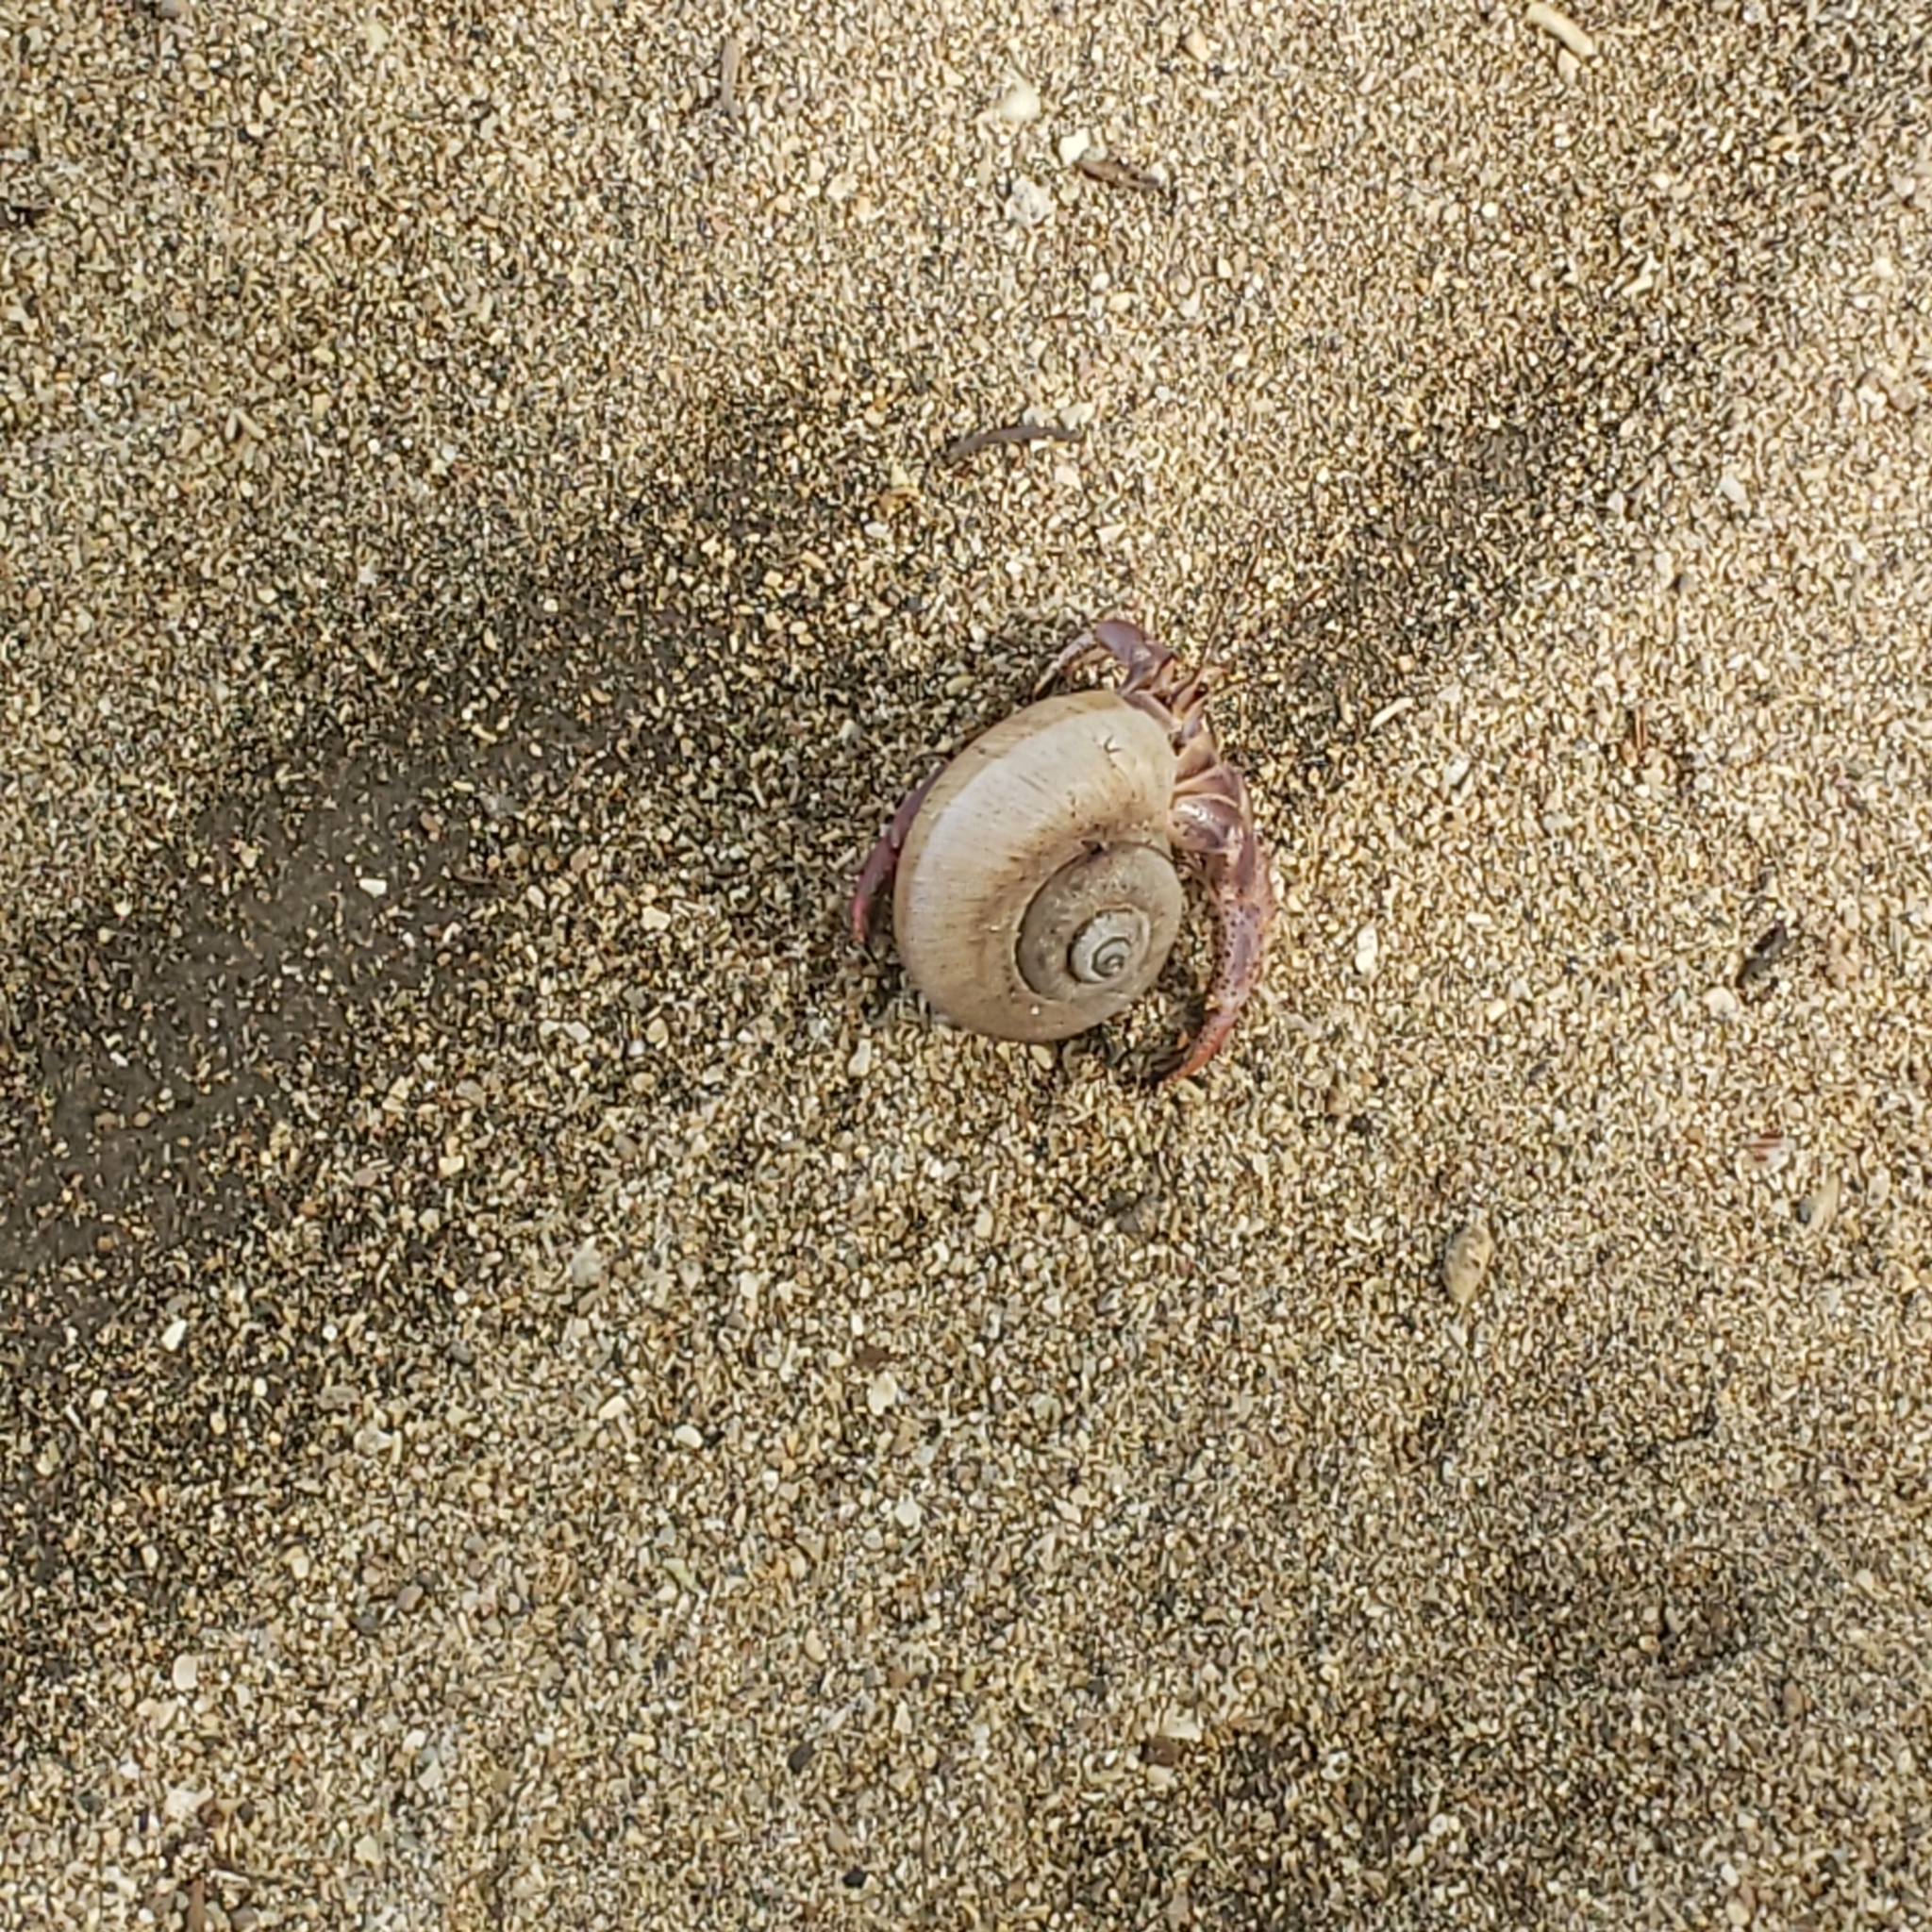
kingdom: Animalia
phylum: Arthropoda
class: Malacostraca
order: Decapoda
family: Coenobitidae
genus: Coenobita
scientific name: Coenobita clypeatus
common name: Caribbean hermit crab
